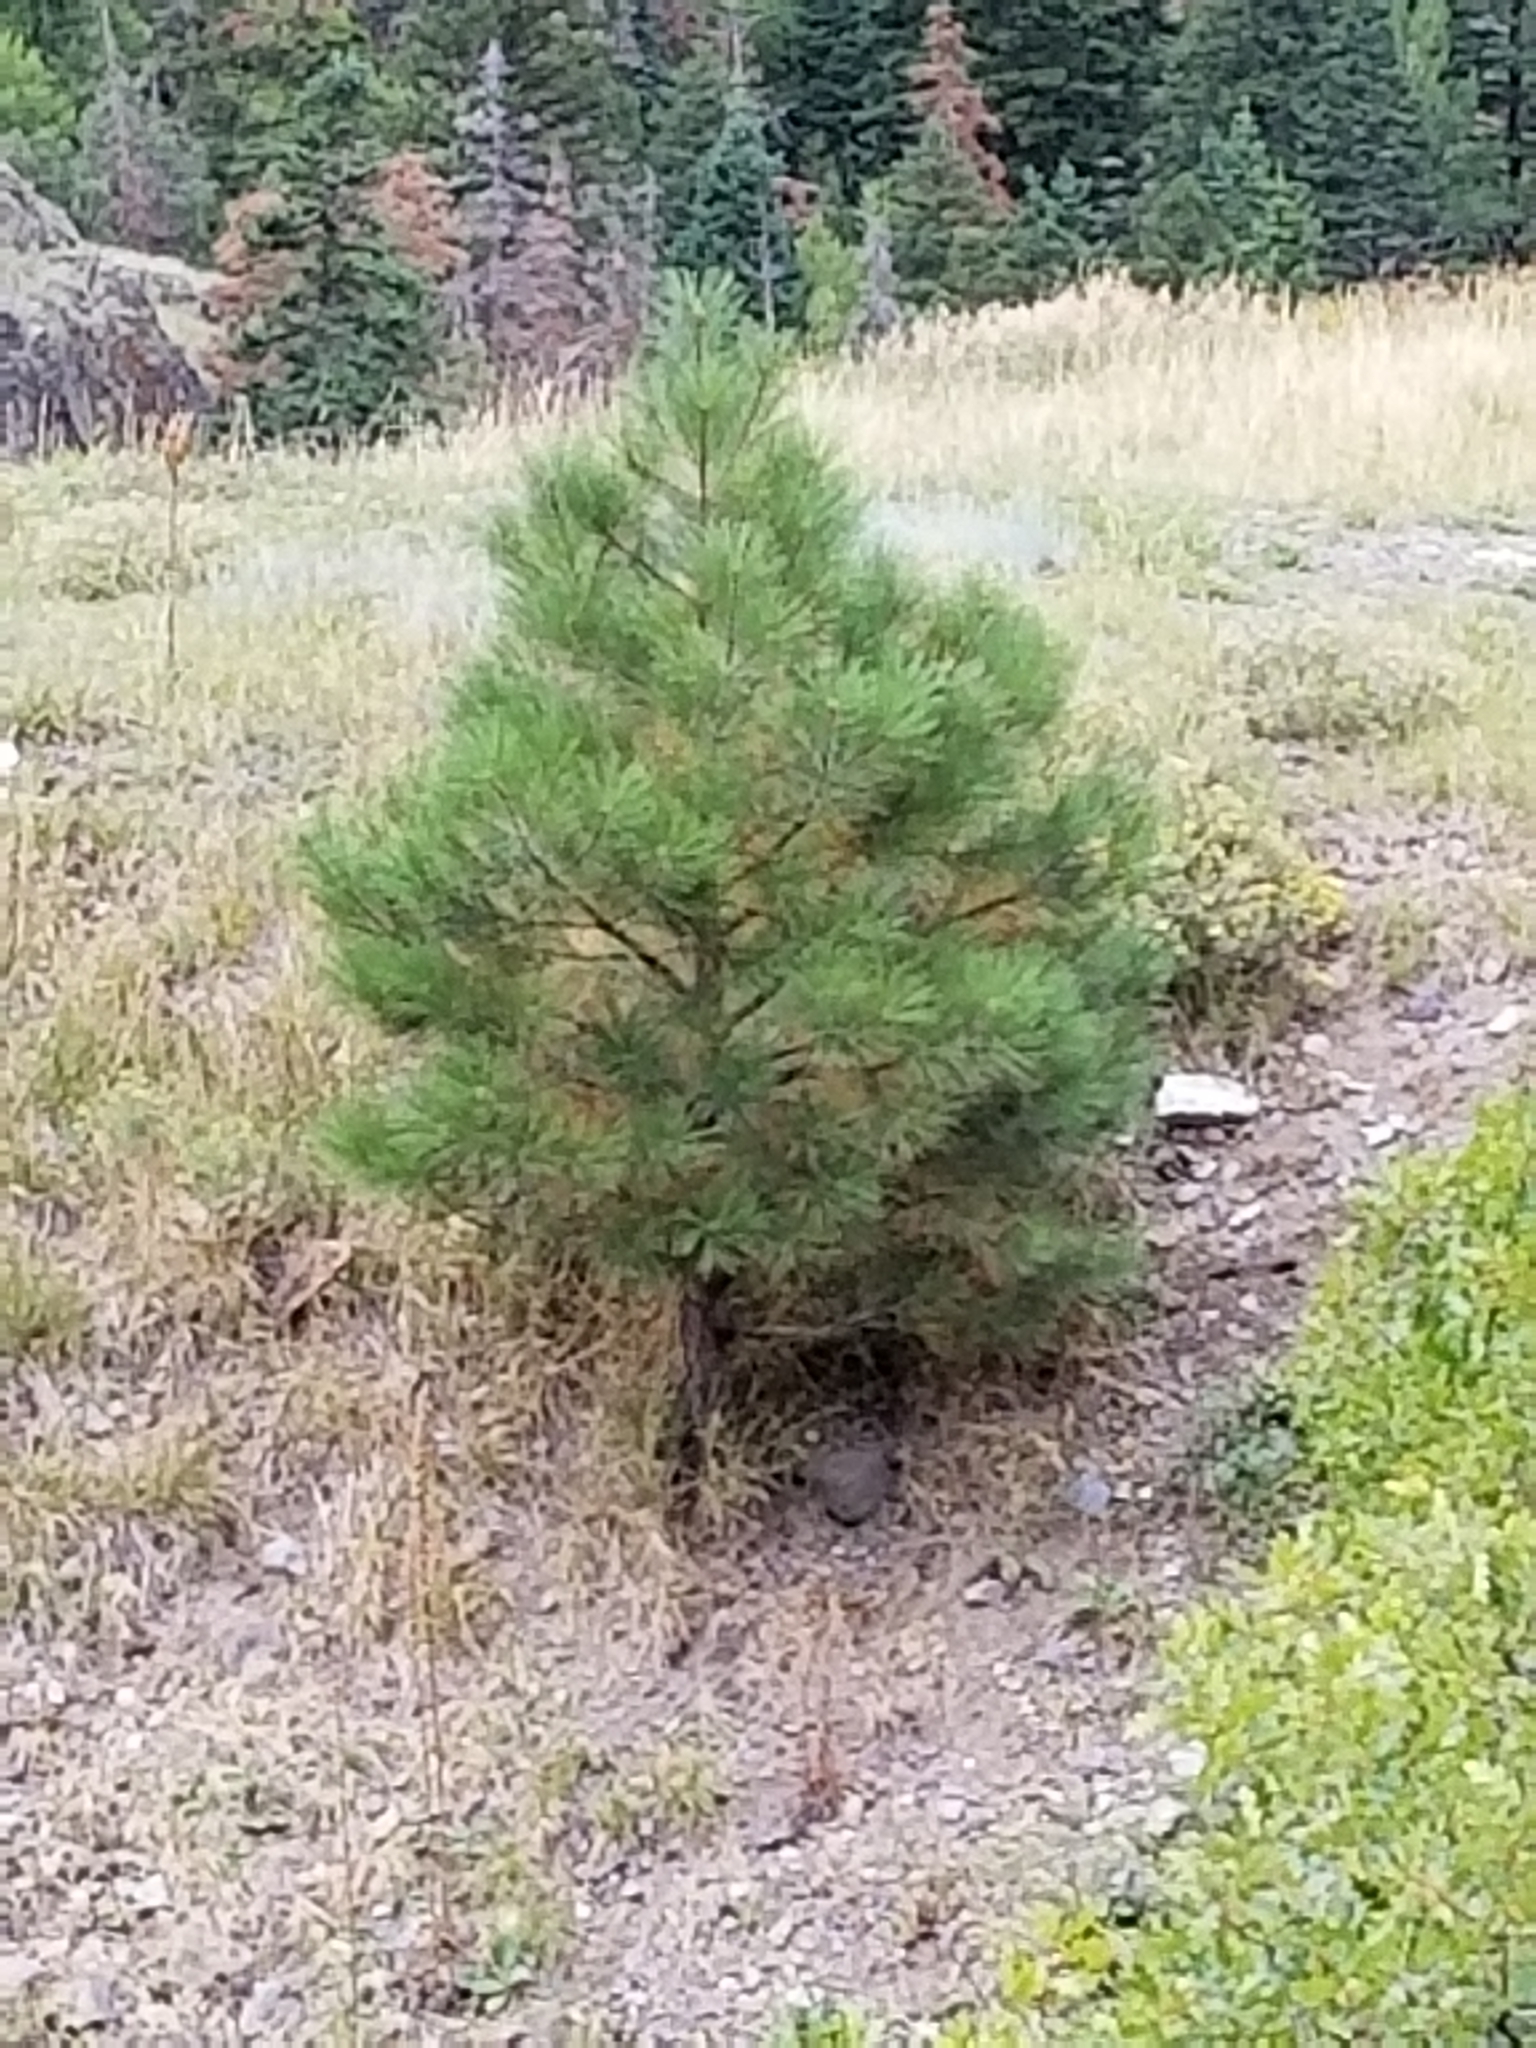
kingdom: Plantae
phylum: Tracheophyta
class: Pinopsida
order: Pinales
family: Pinaceae
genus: Pinus
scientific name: Pinus ponderosa
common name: Western yellow-pine
